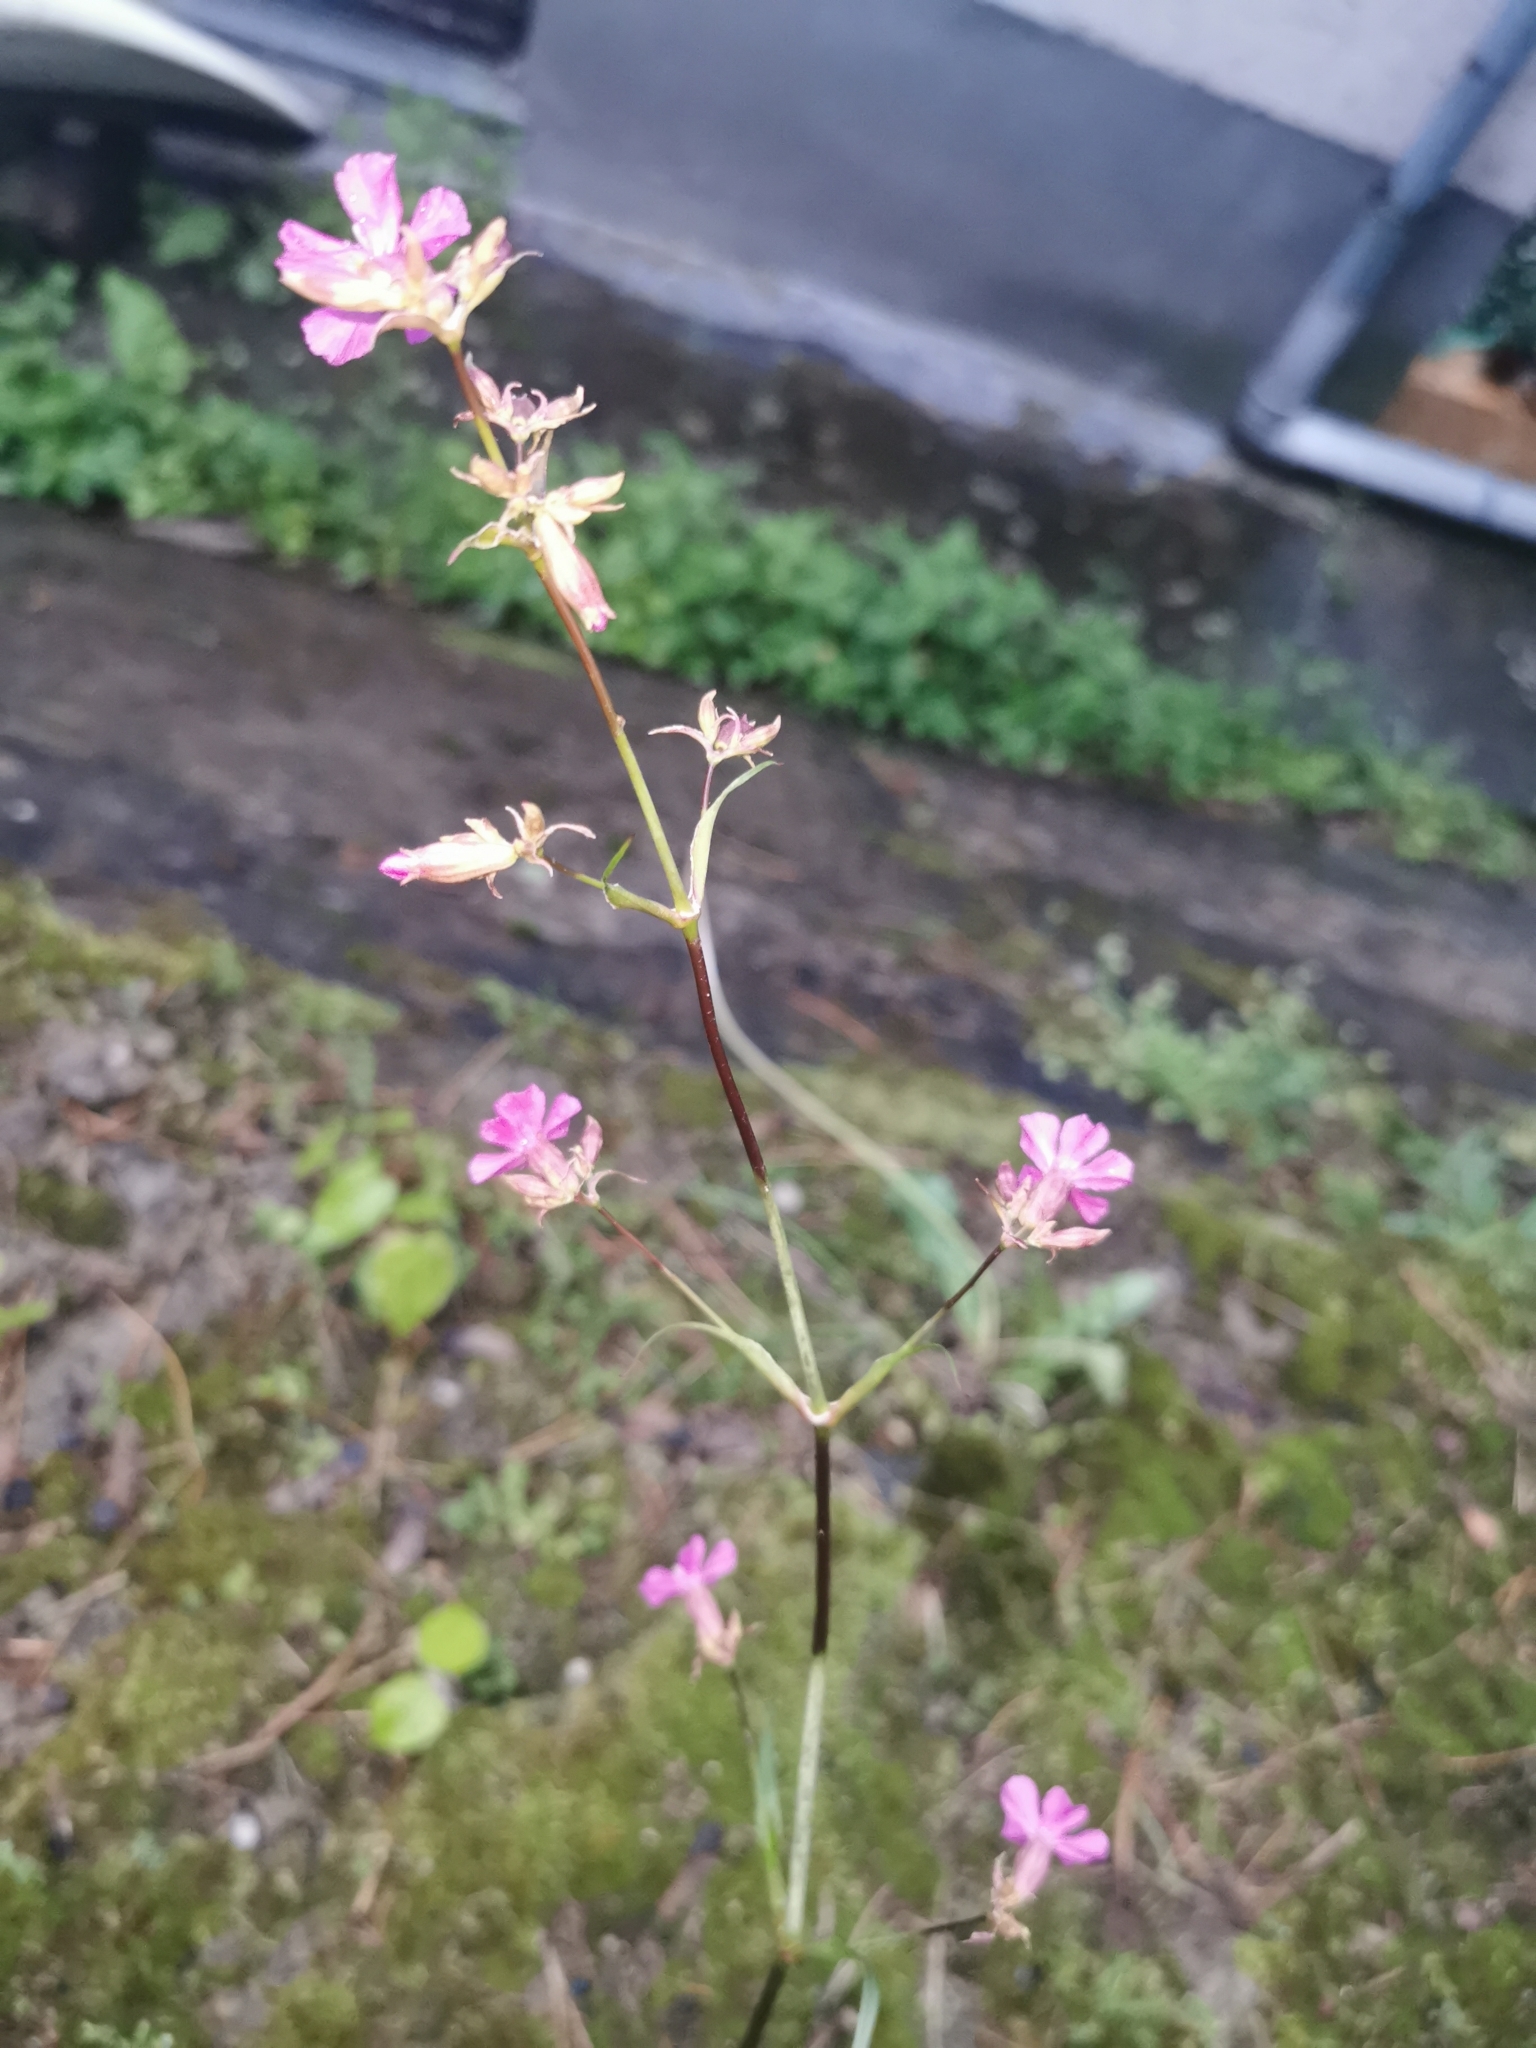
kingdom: Plantae
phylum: Tracheophyta
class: Magnoliopsida
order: Caryophyllales
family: Caryophyllaceae
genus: Viscaria
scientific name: Viscaria vulgaris
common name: Clammy campion
